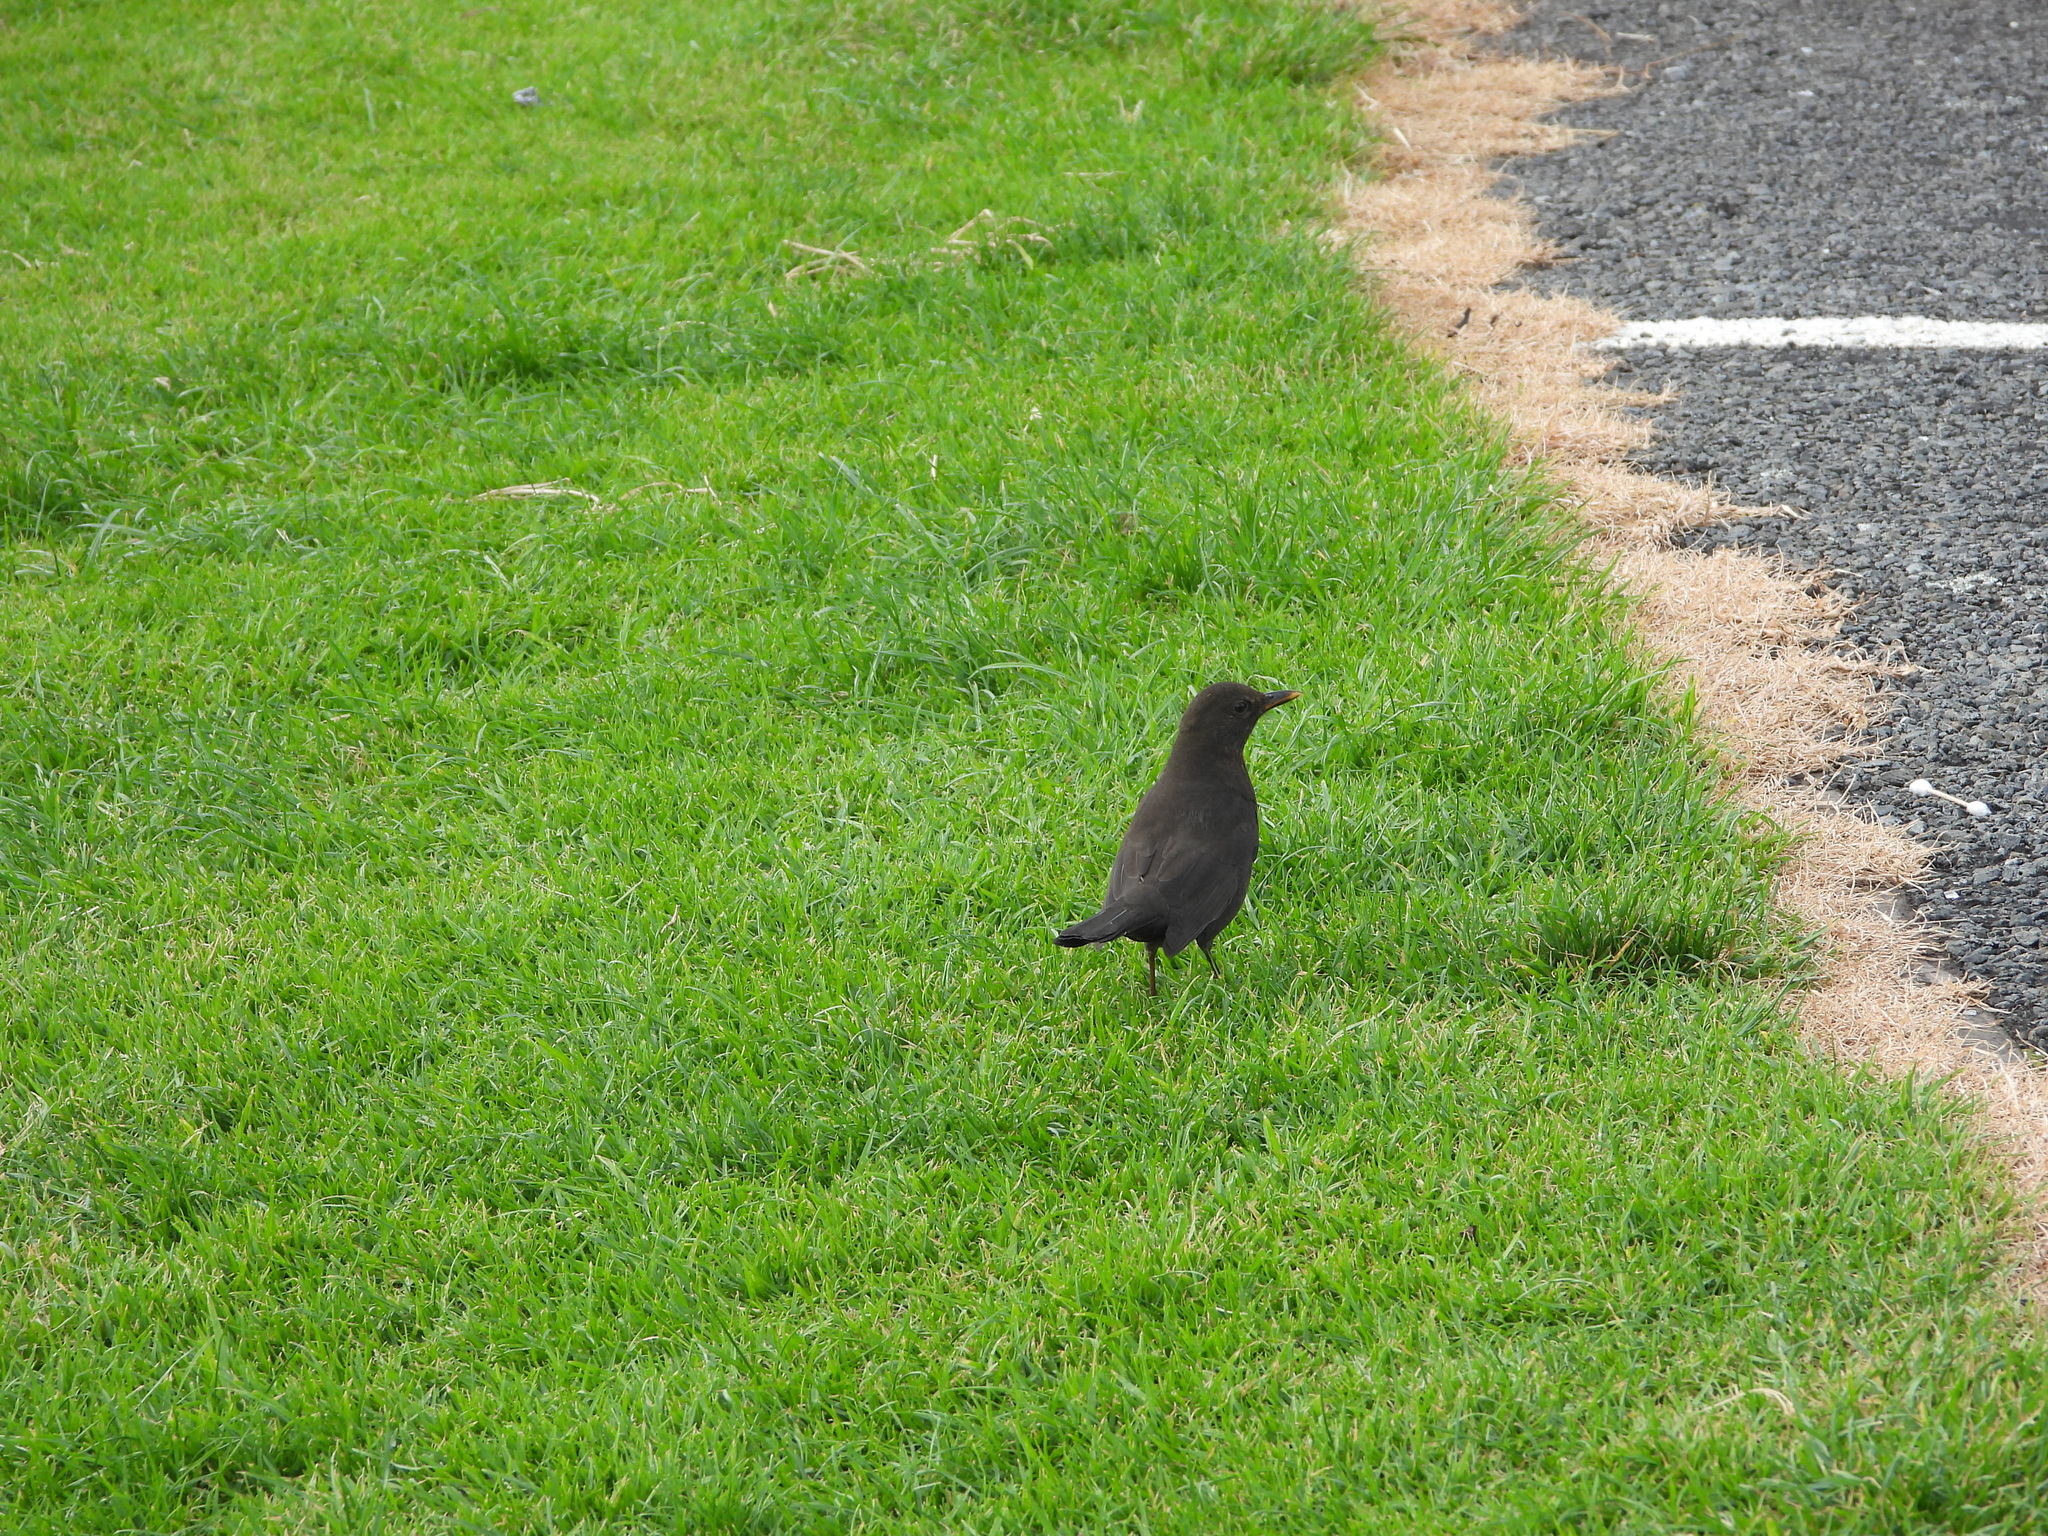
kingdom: Animalia
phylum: Chordata
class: Aves
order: Passeriformes
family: Turdidae
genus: Turdus
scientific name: Turdus merula
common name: Common blackbird
